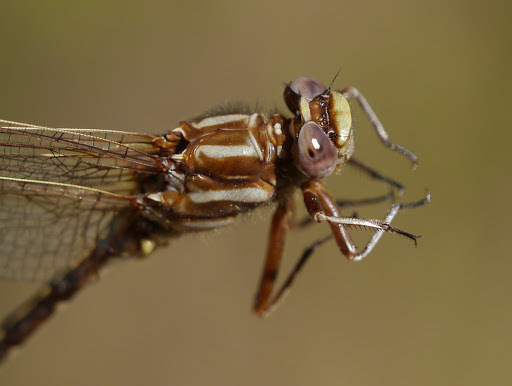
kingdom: Animalia
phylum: Arthropoda
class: Insecta
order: Odonata
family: Gomphidae
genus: Phanogomphus
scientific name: Phanogomphus lividus
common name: Ashy clubtail
